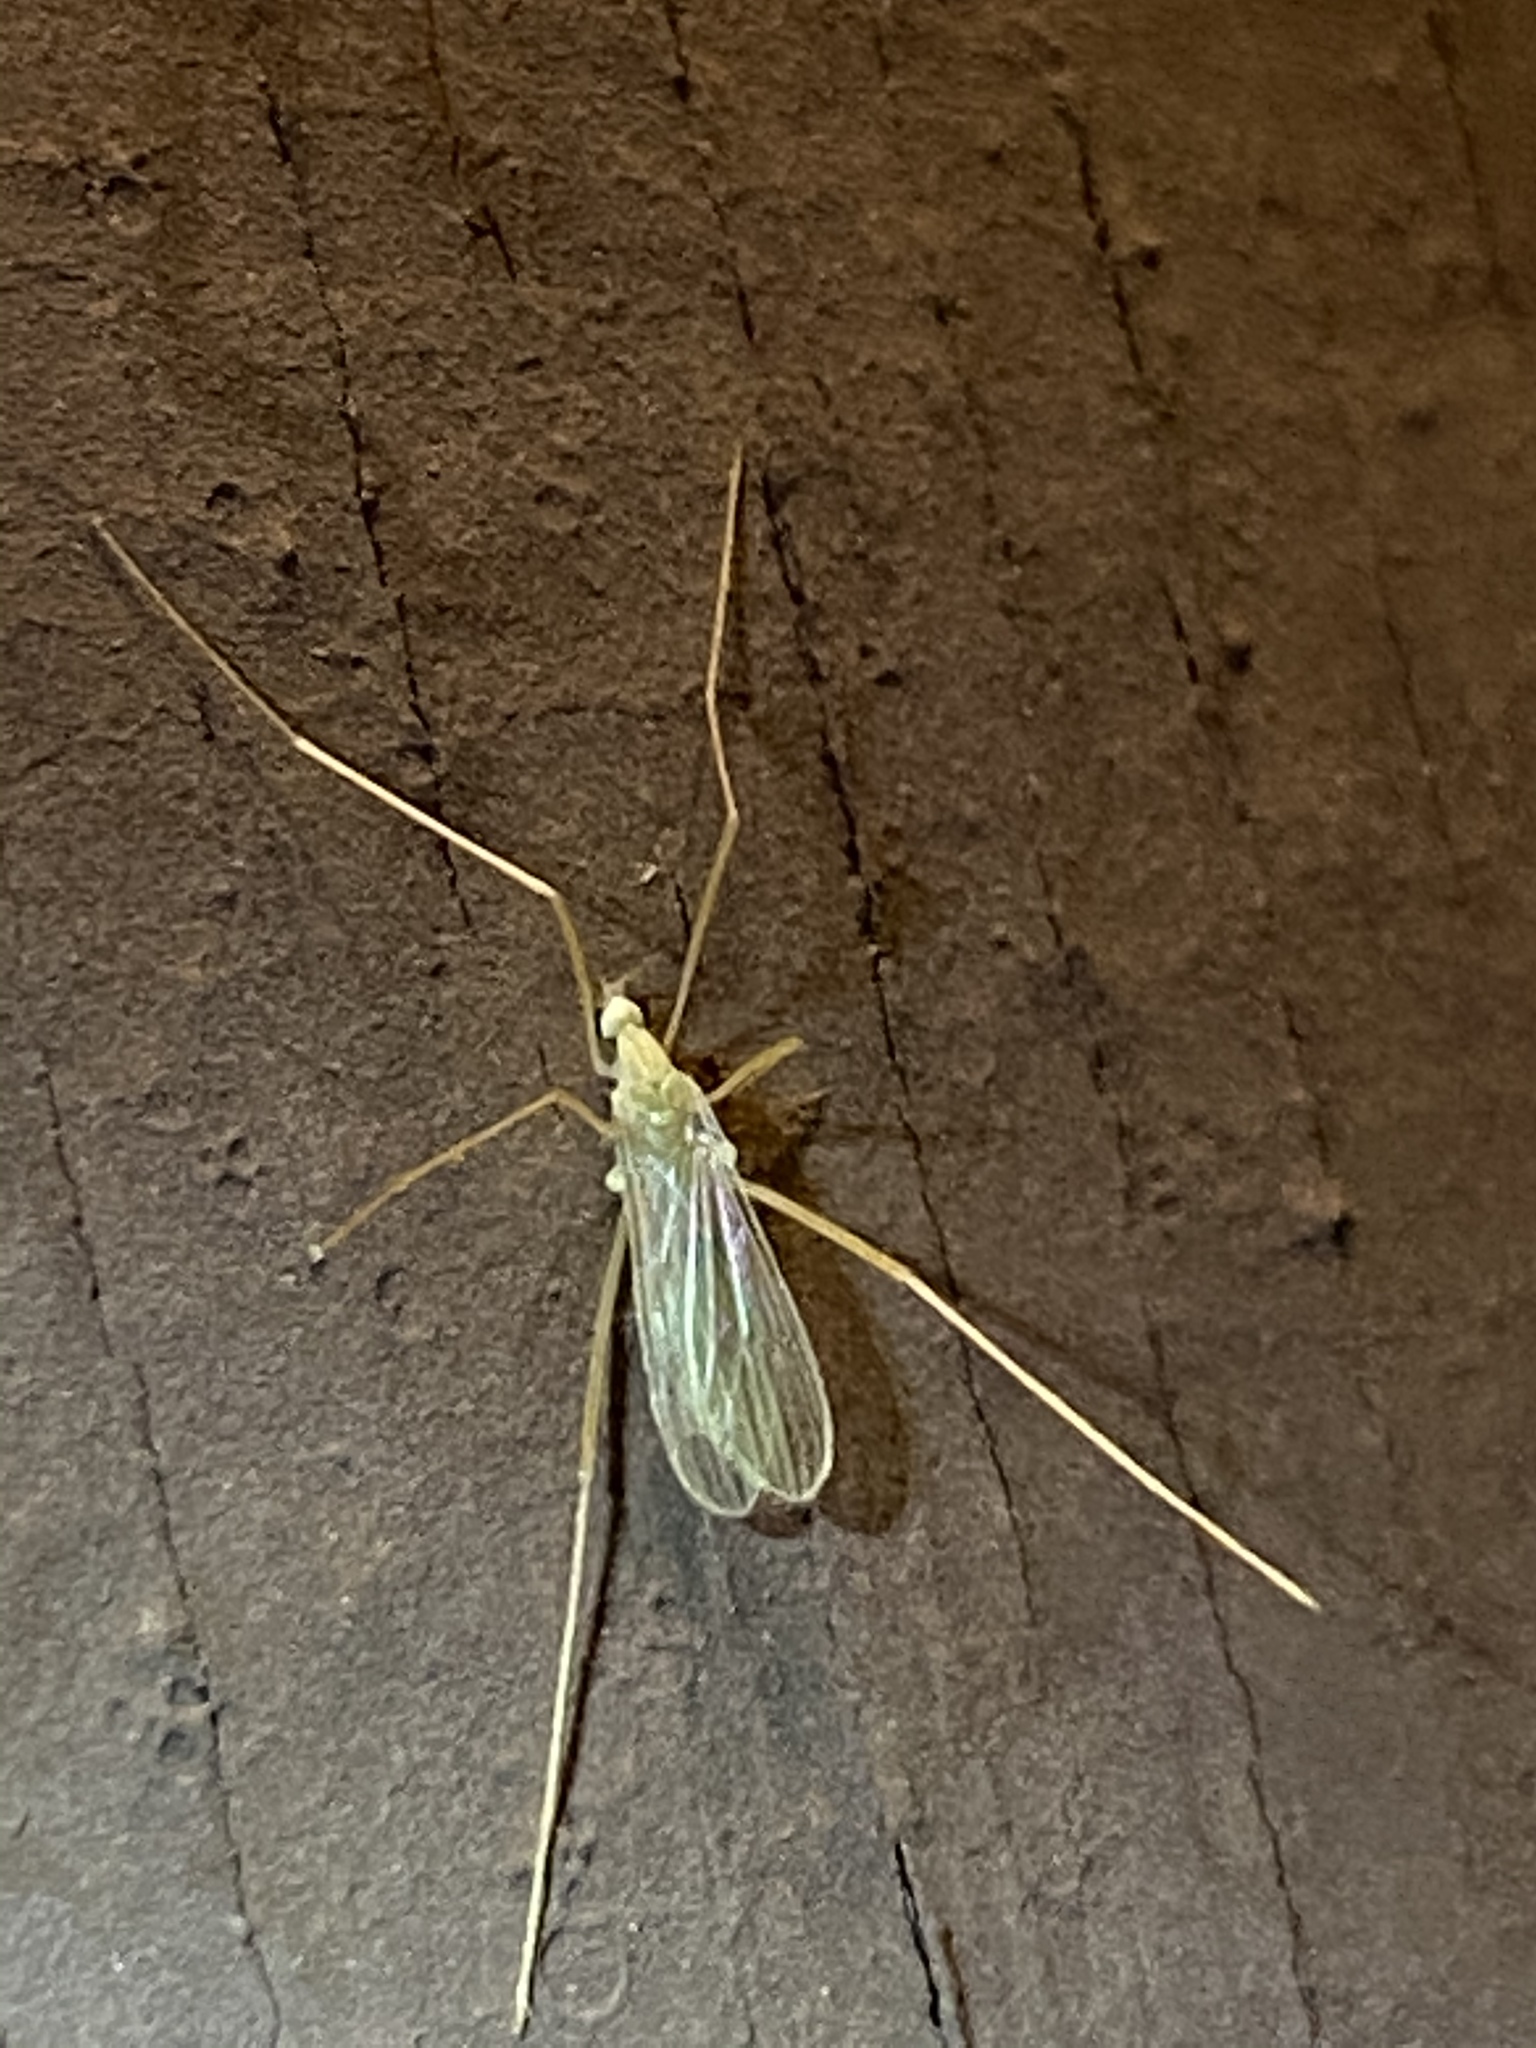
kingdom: Animalia
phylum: Arthropoda
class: Insecta
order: Diptera
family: Limoniidae
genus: Erioptera
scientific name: Erioptera
